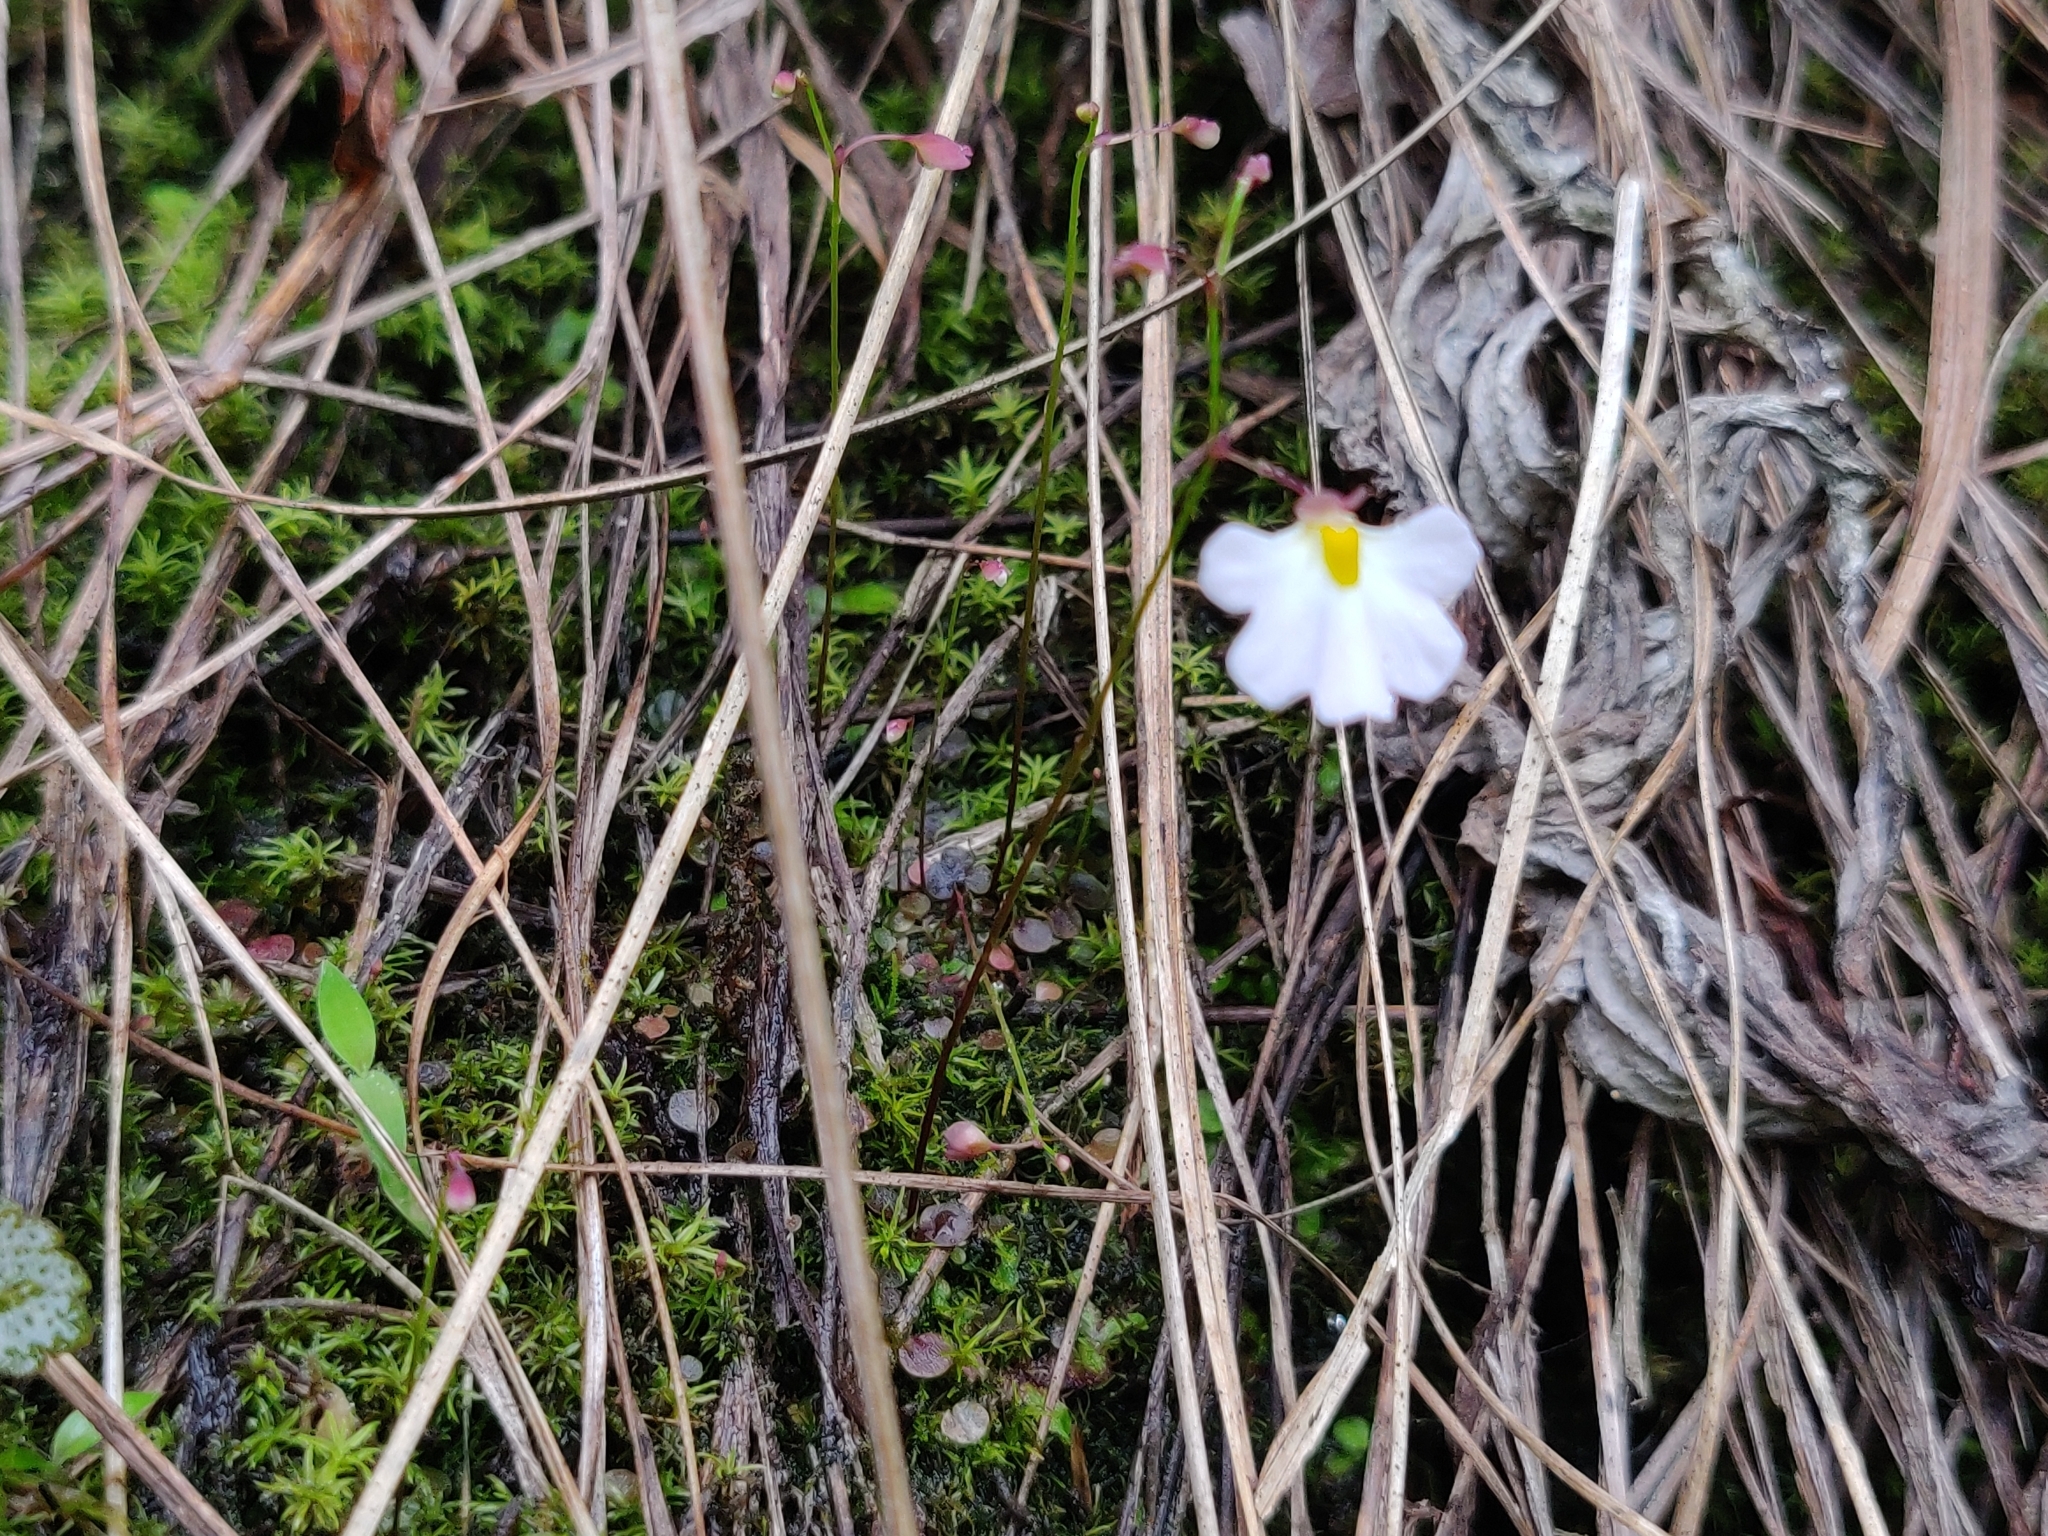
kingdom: Plantae
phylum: Tracheophyta
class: Magnoliopsida
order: Lamiales
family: Lentibulariaceae
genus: Utricularia
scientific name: Utricularia striatula
